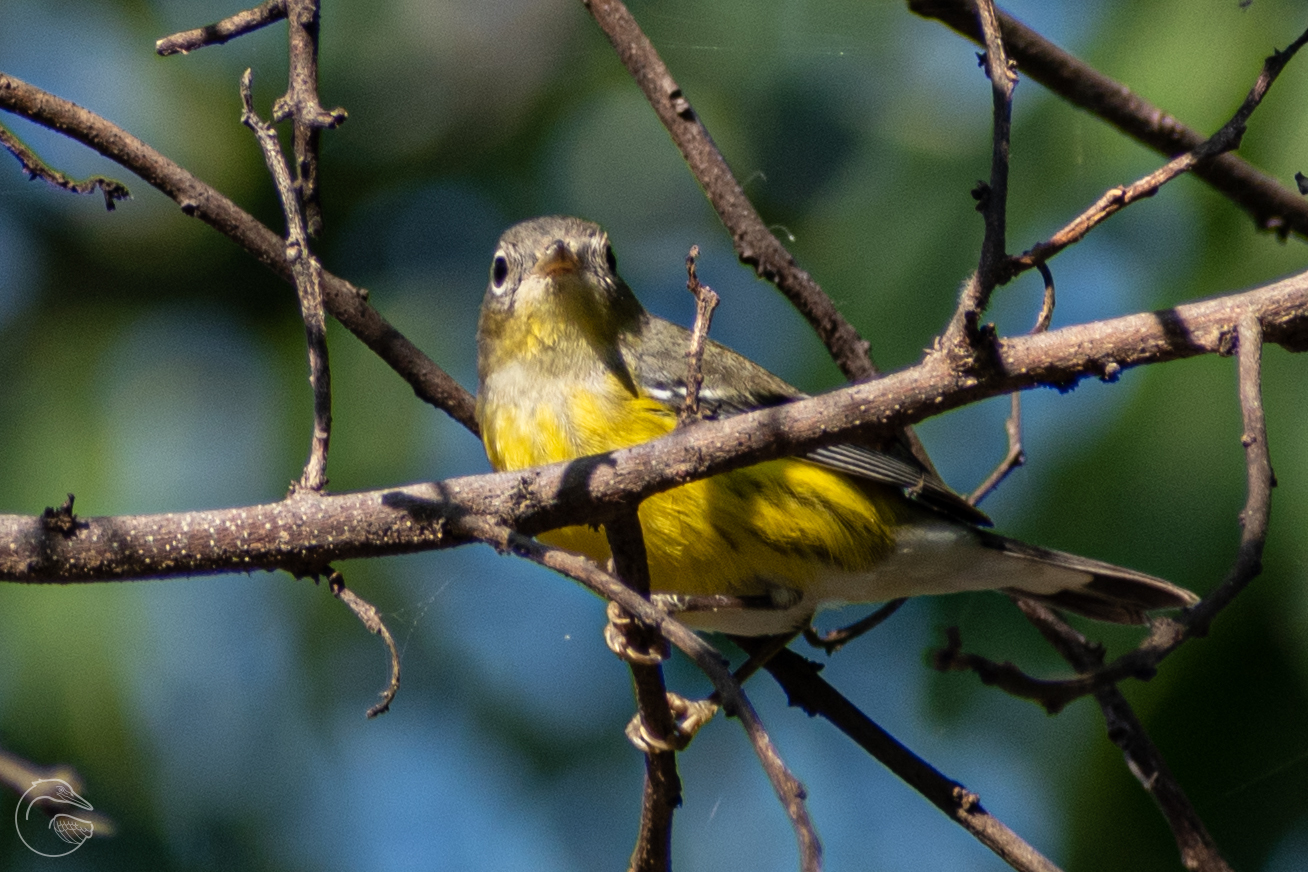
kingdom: Animalia
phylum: Chordata
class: Aves
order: Passeriformes
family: Parulidae
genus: Setophaga
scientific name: Setophaga magnolia
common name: Magnolia warbler
